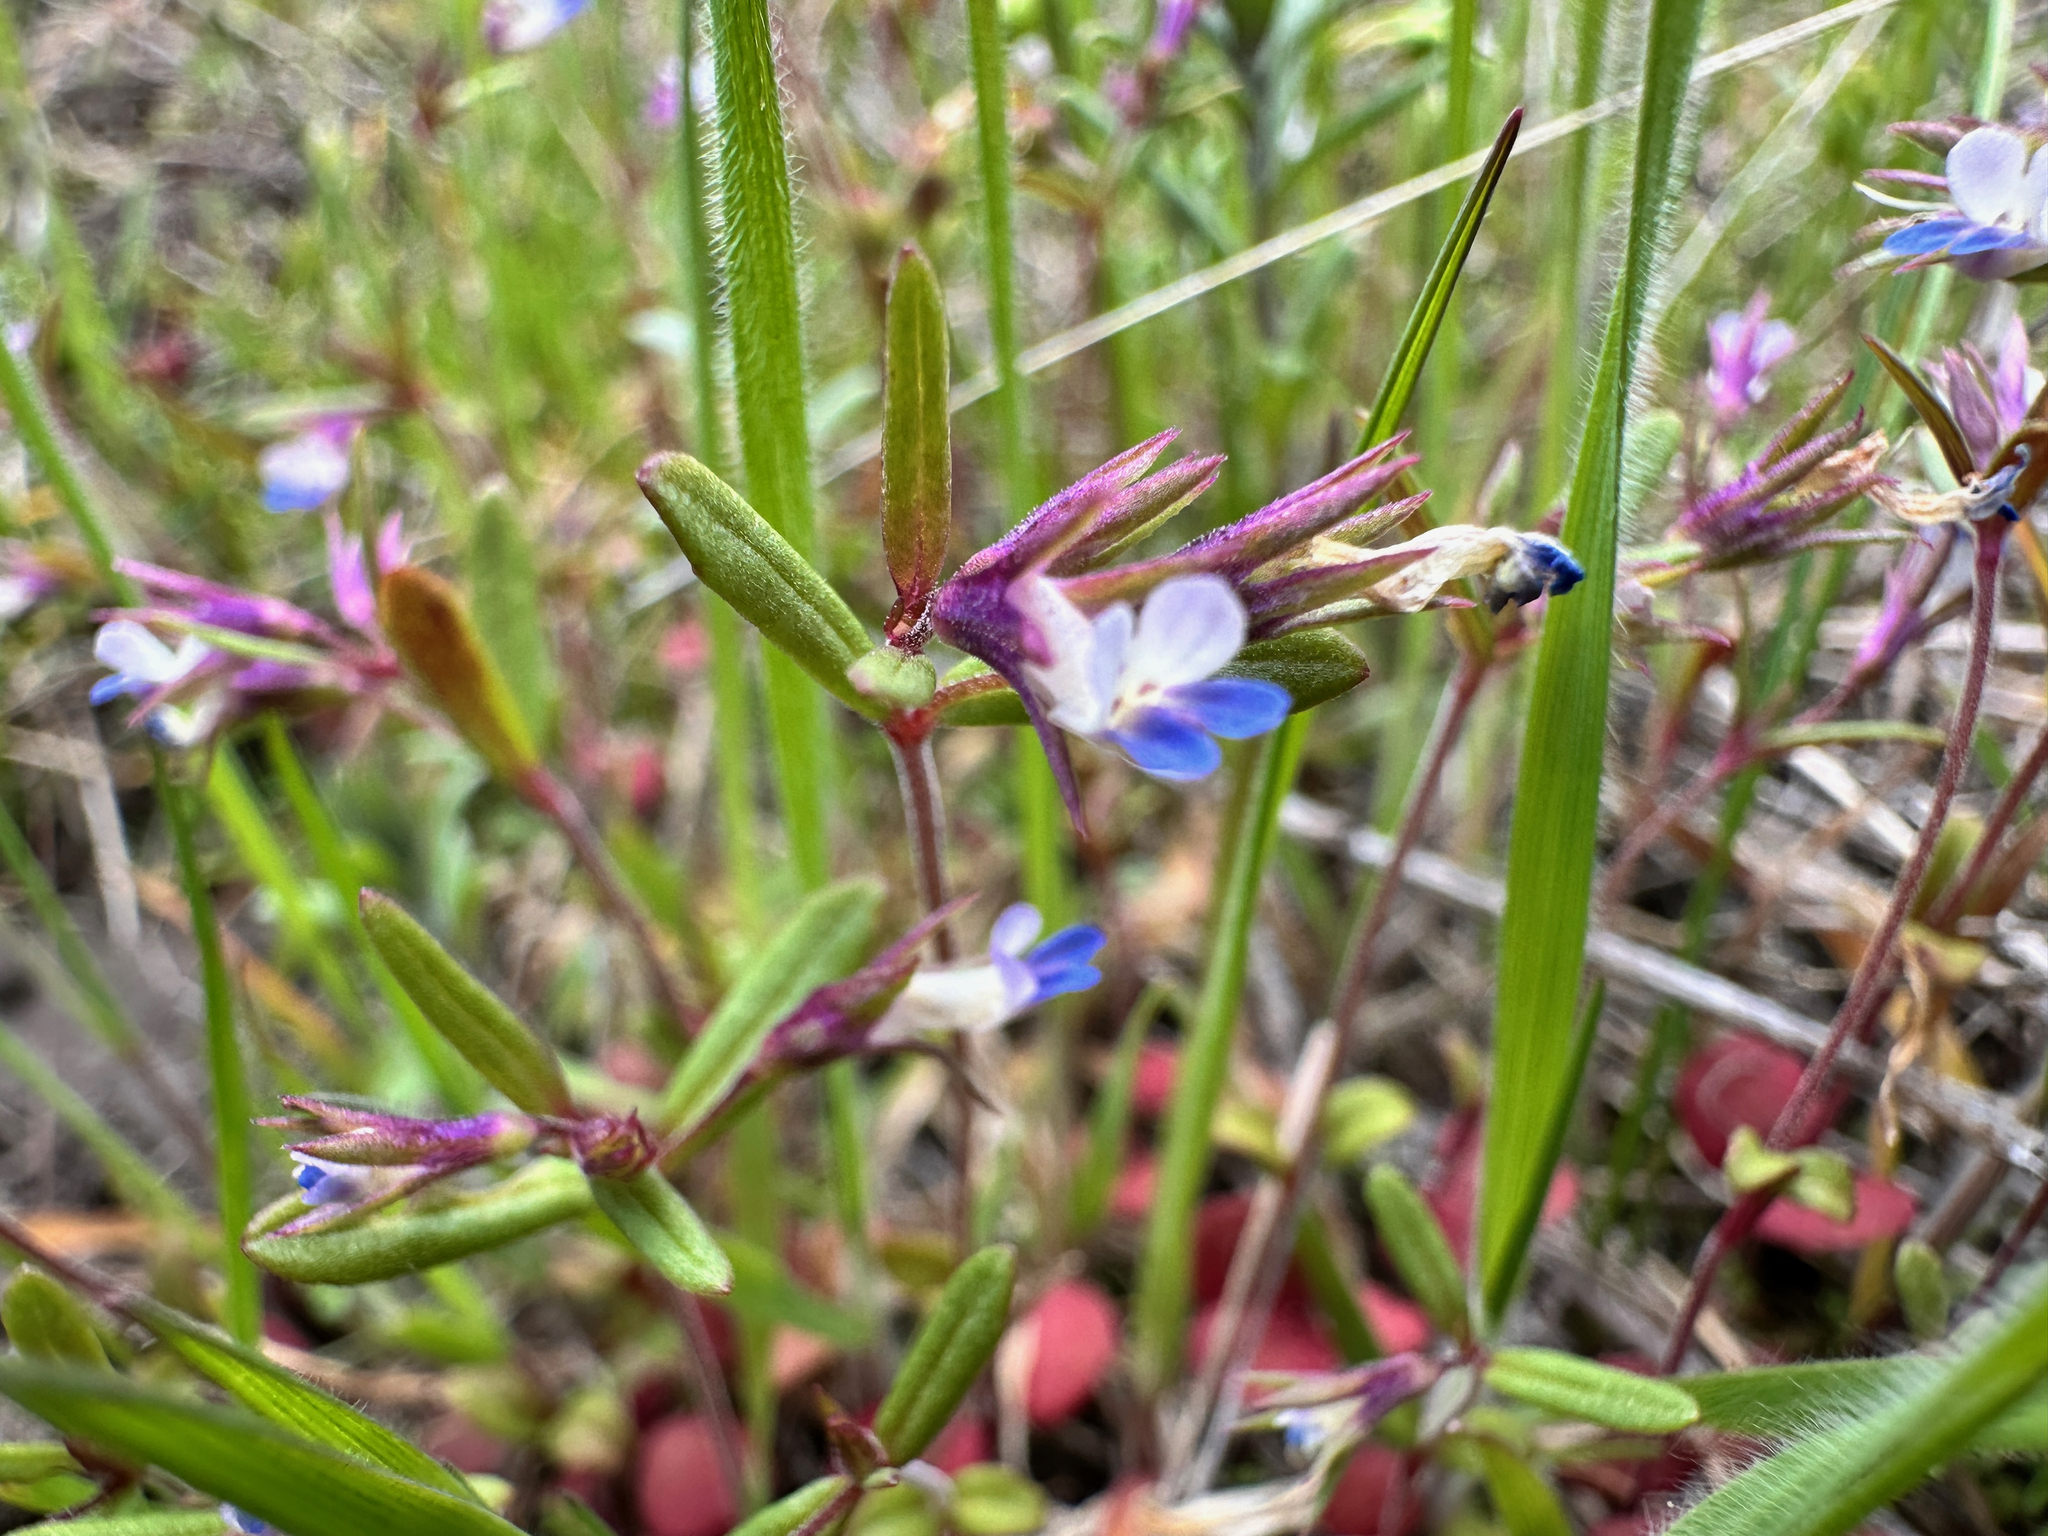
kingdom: Plantae
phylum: Tracheophyta
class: Magnoliopsida
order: Lamiales
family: Plantaginaceae
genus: Collinsia
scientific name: Collinsia parviflora
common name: Blue-lips
